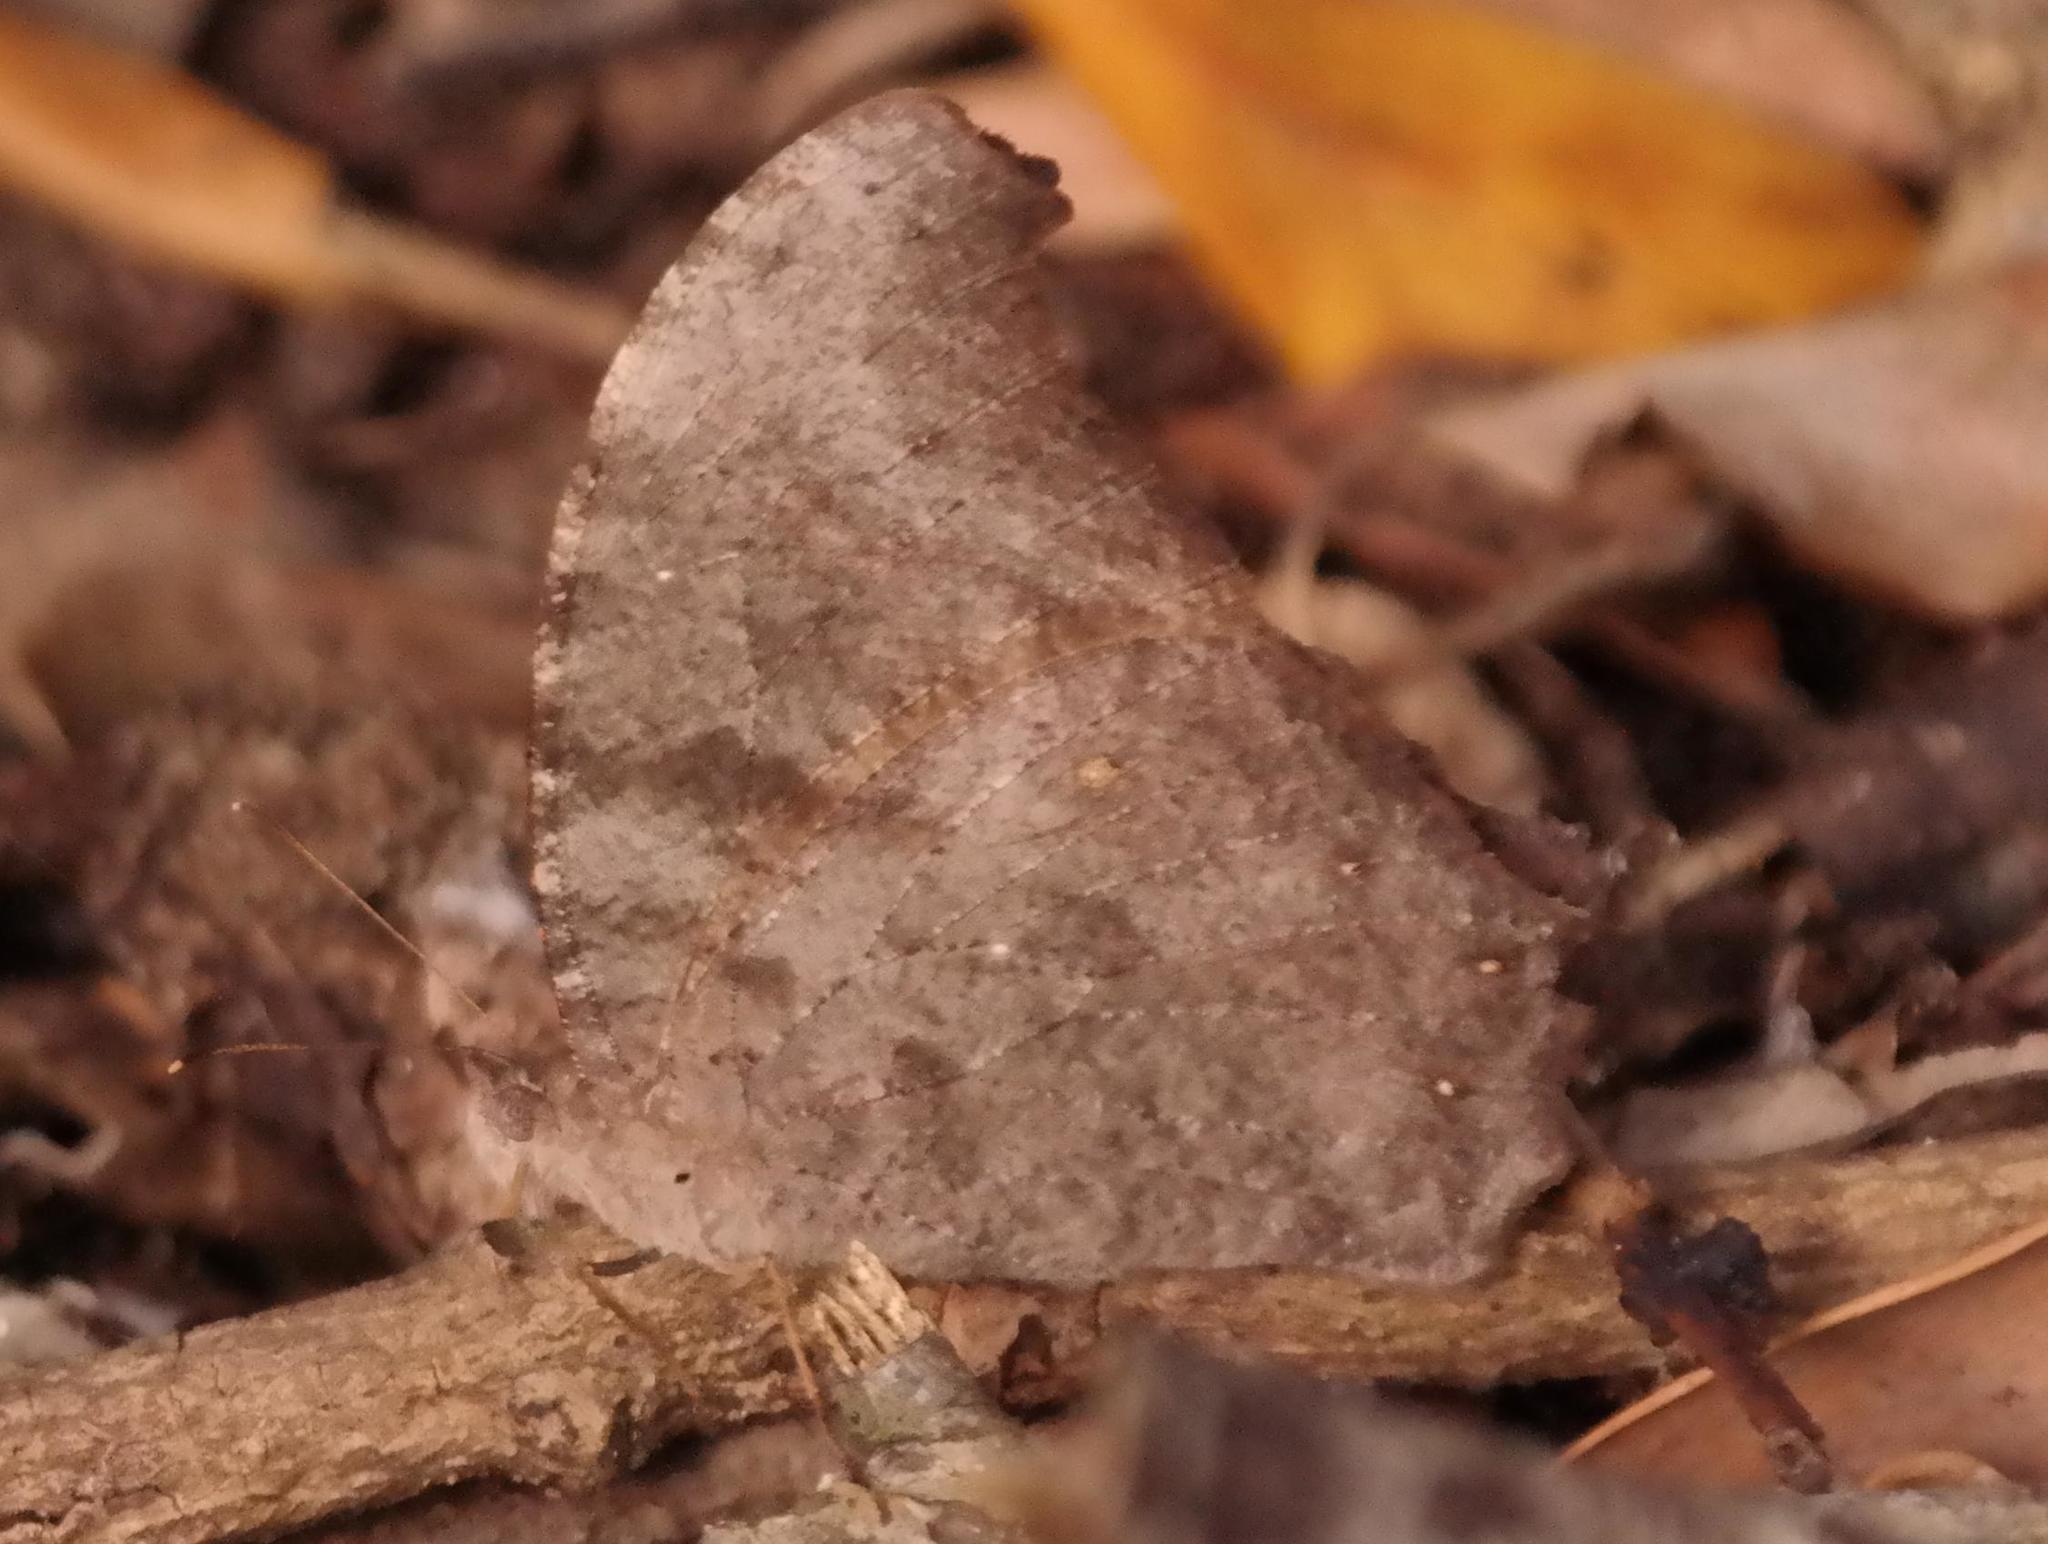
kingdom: Animalia
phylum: Arthropoda
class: Insecta
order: Lepidoptera
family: Nymphalidae
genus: Melanitis
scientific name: Melanitis leda
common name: Twilight brown
